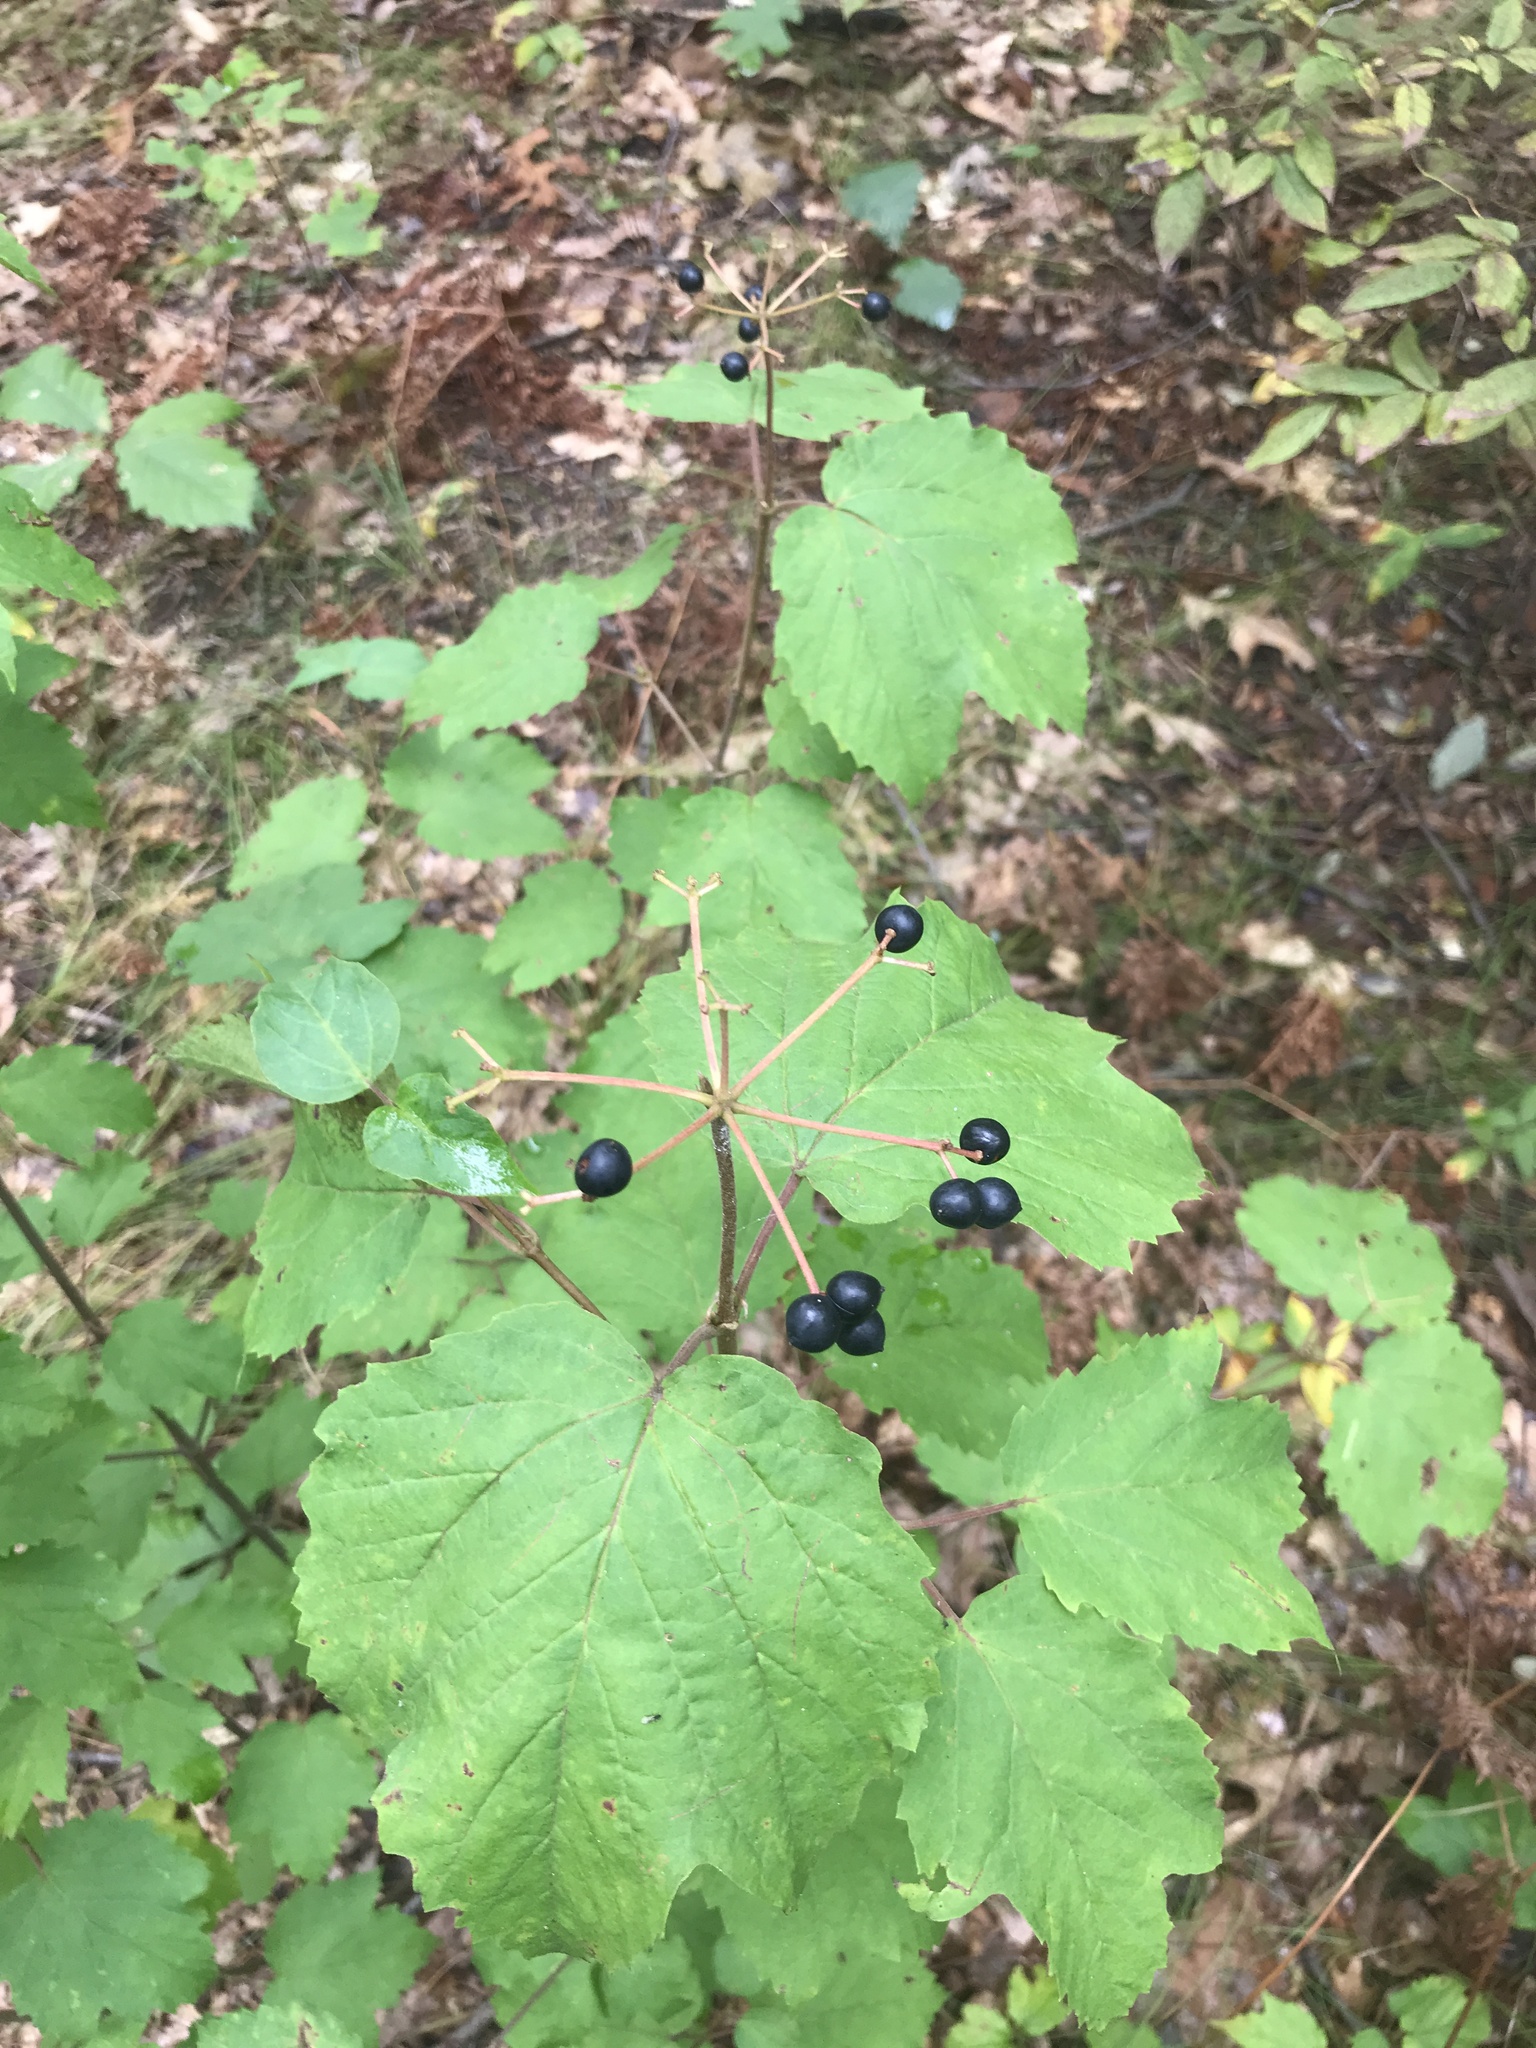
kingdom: Plantae
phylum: Tracheophyta
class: Magnoliopsida
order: Dipsacales
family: Viburnaceae
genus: Viburnum
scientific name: Viburnum acerifolium
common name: Dockmackie
